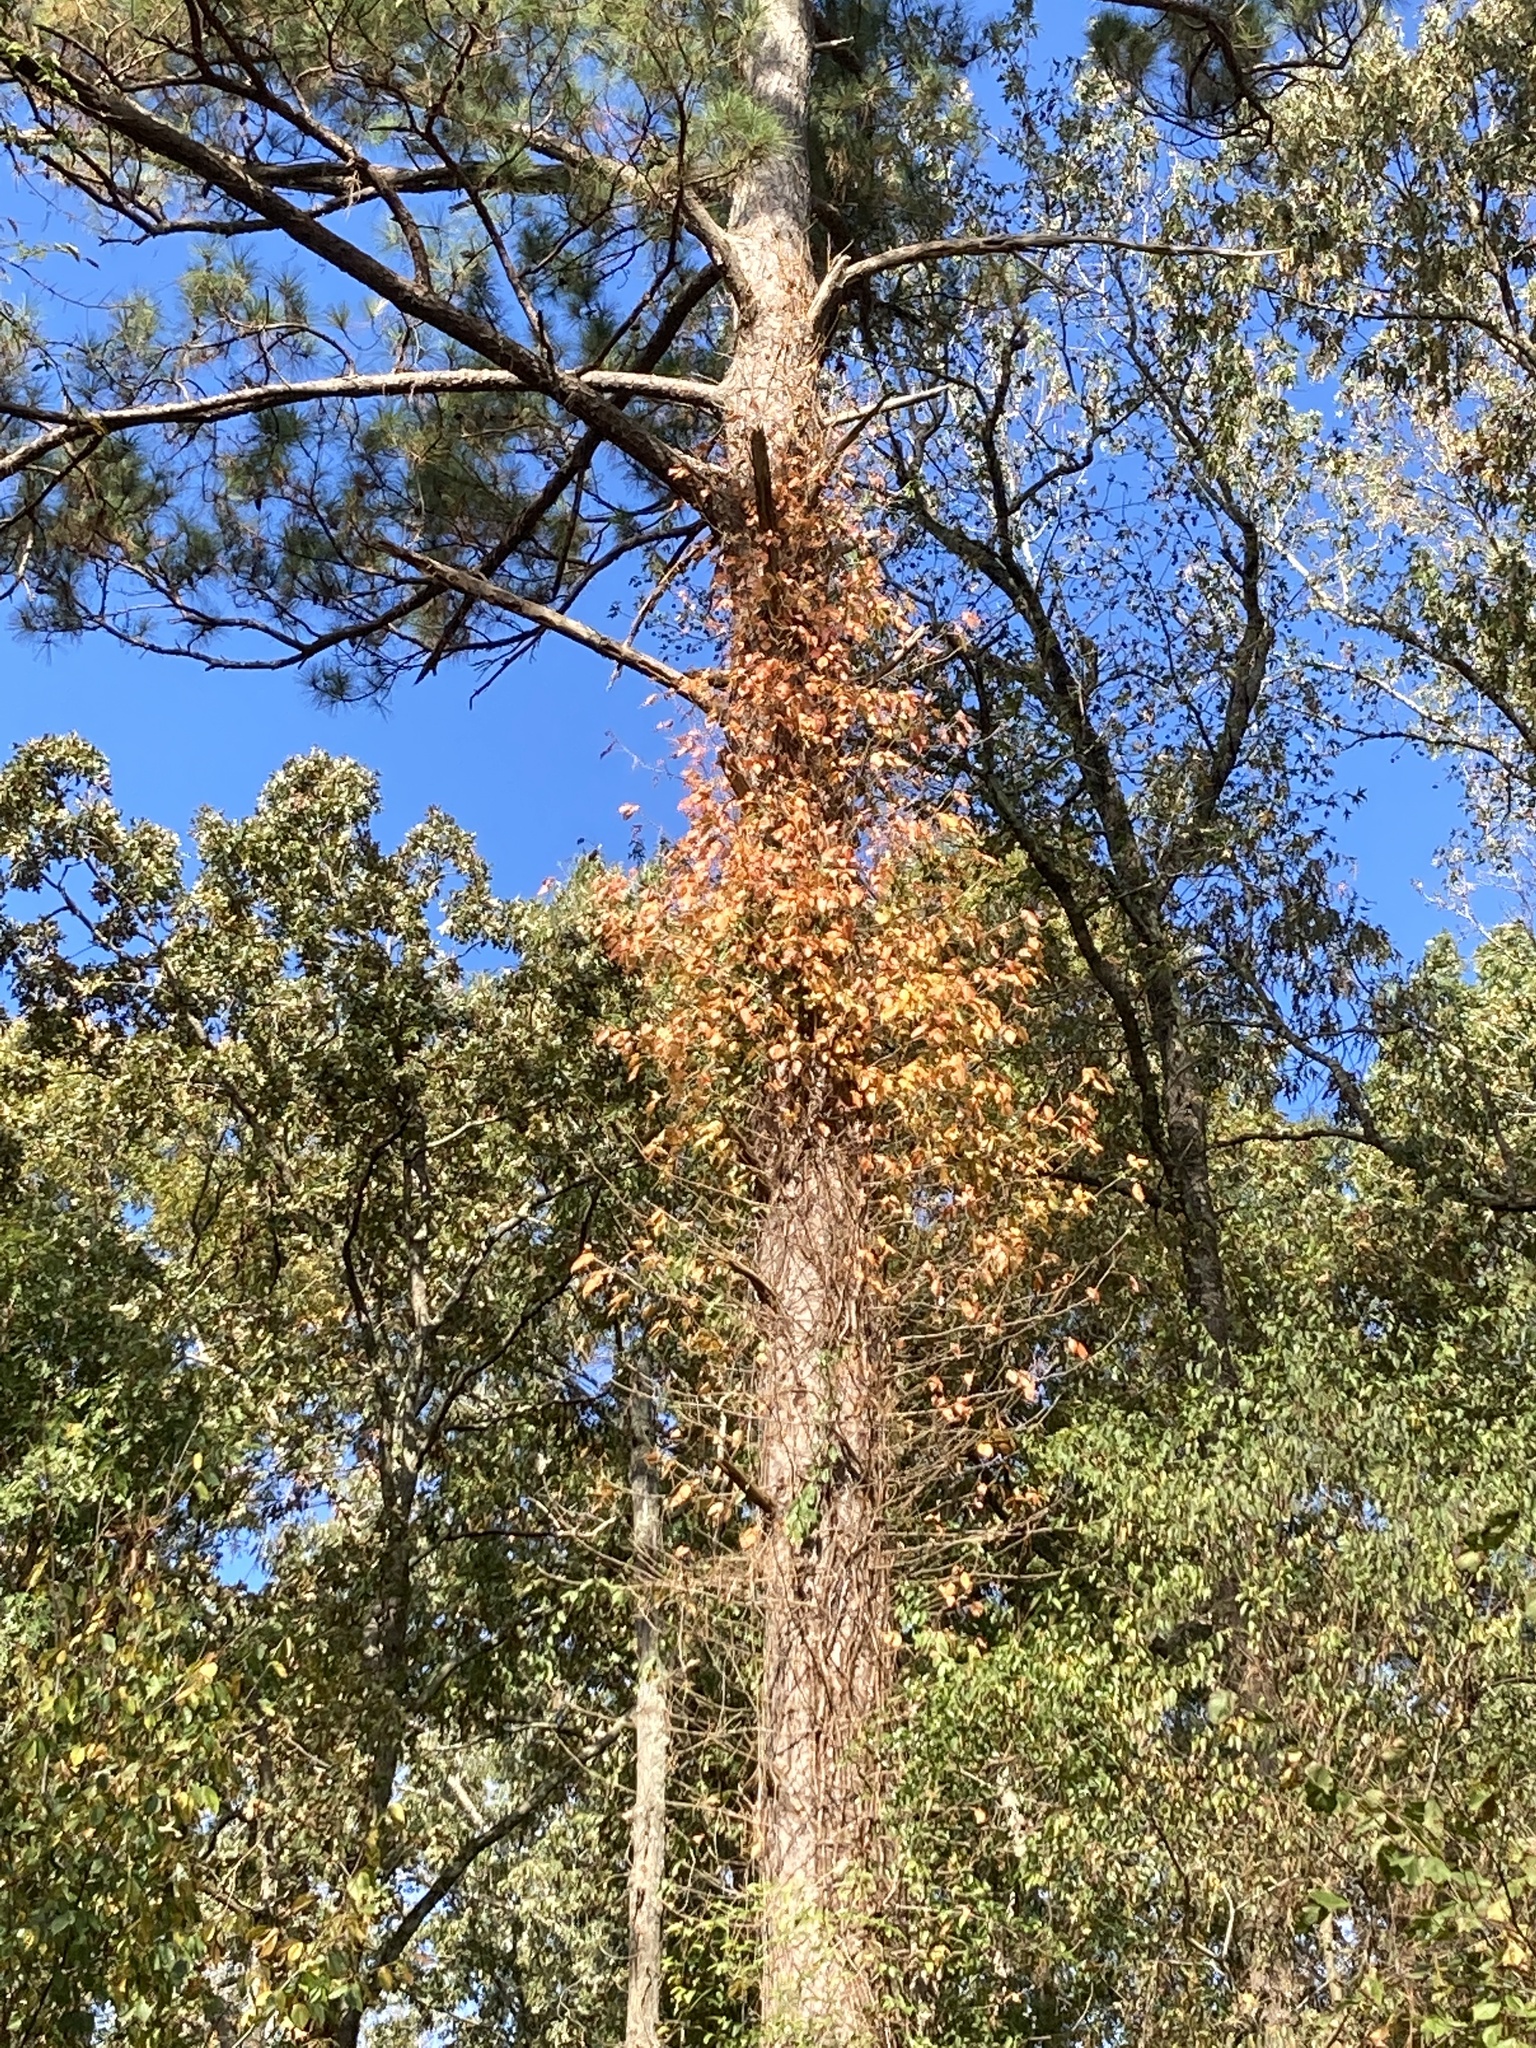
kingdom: Plantae
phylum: Tracheophyta
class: Magnoliopsida
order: Sapindales
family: Anacardiaceae
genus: Toxicodendron
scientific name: Toxicodendron radicans
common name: Poison ivy
